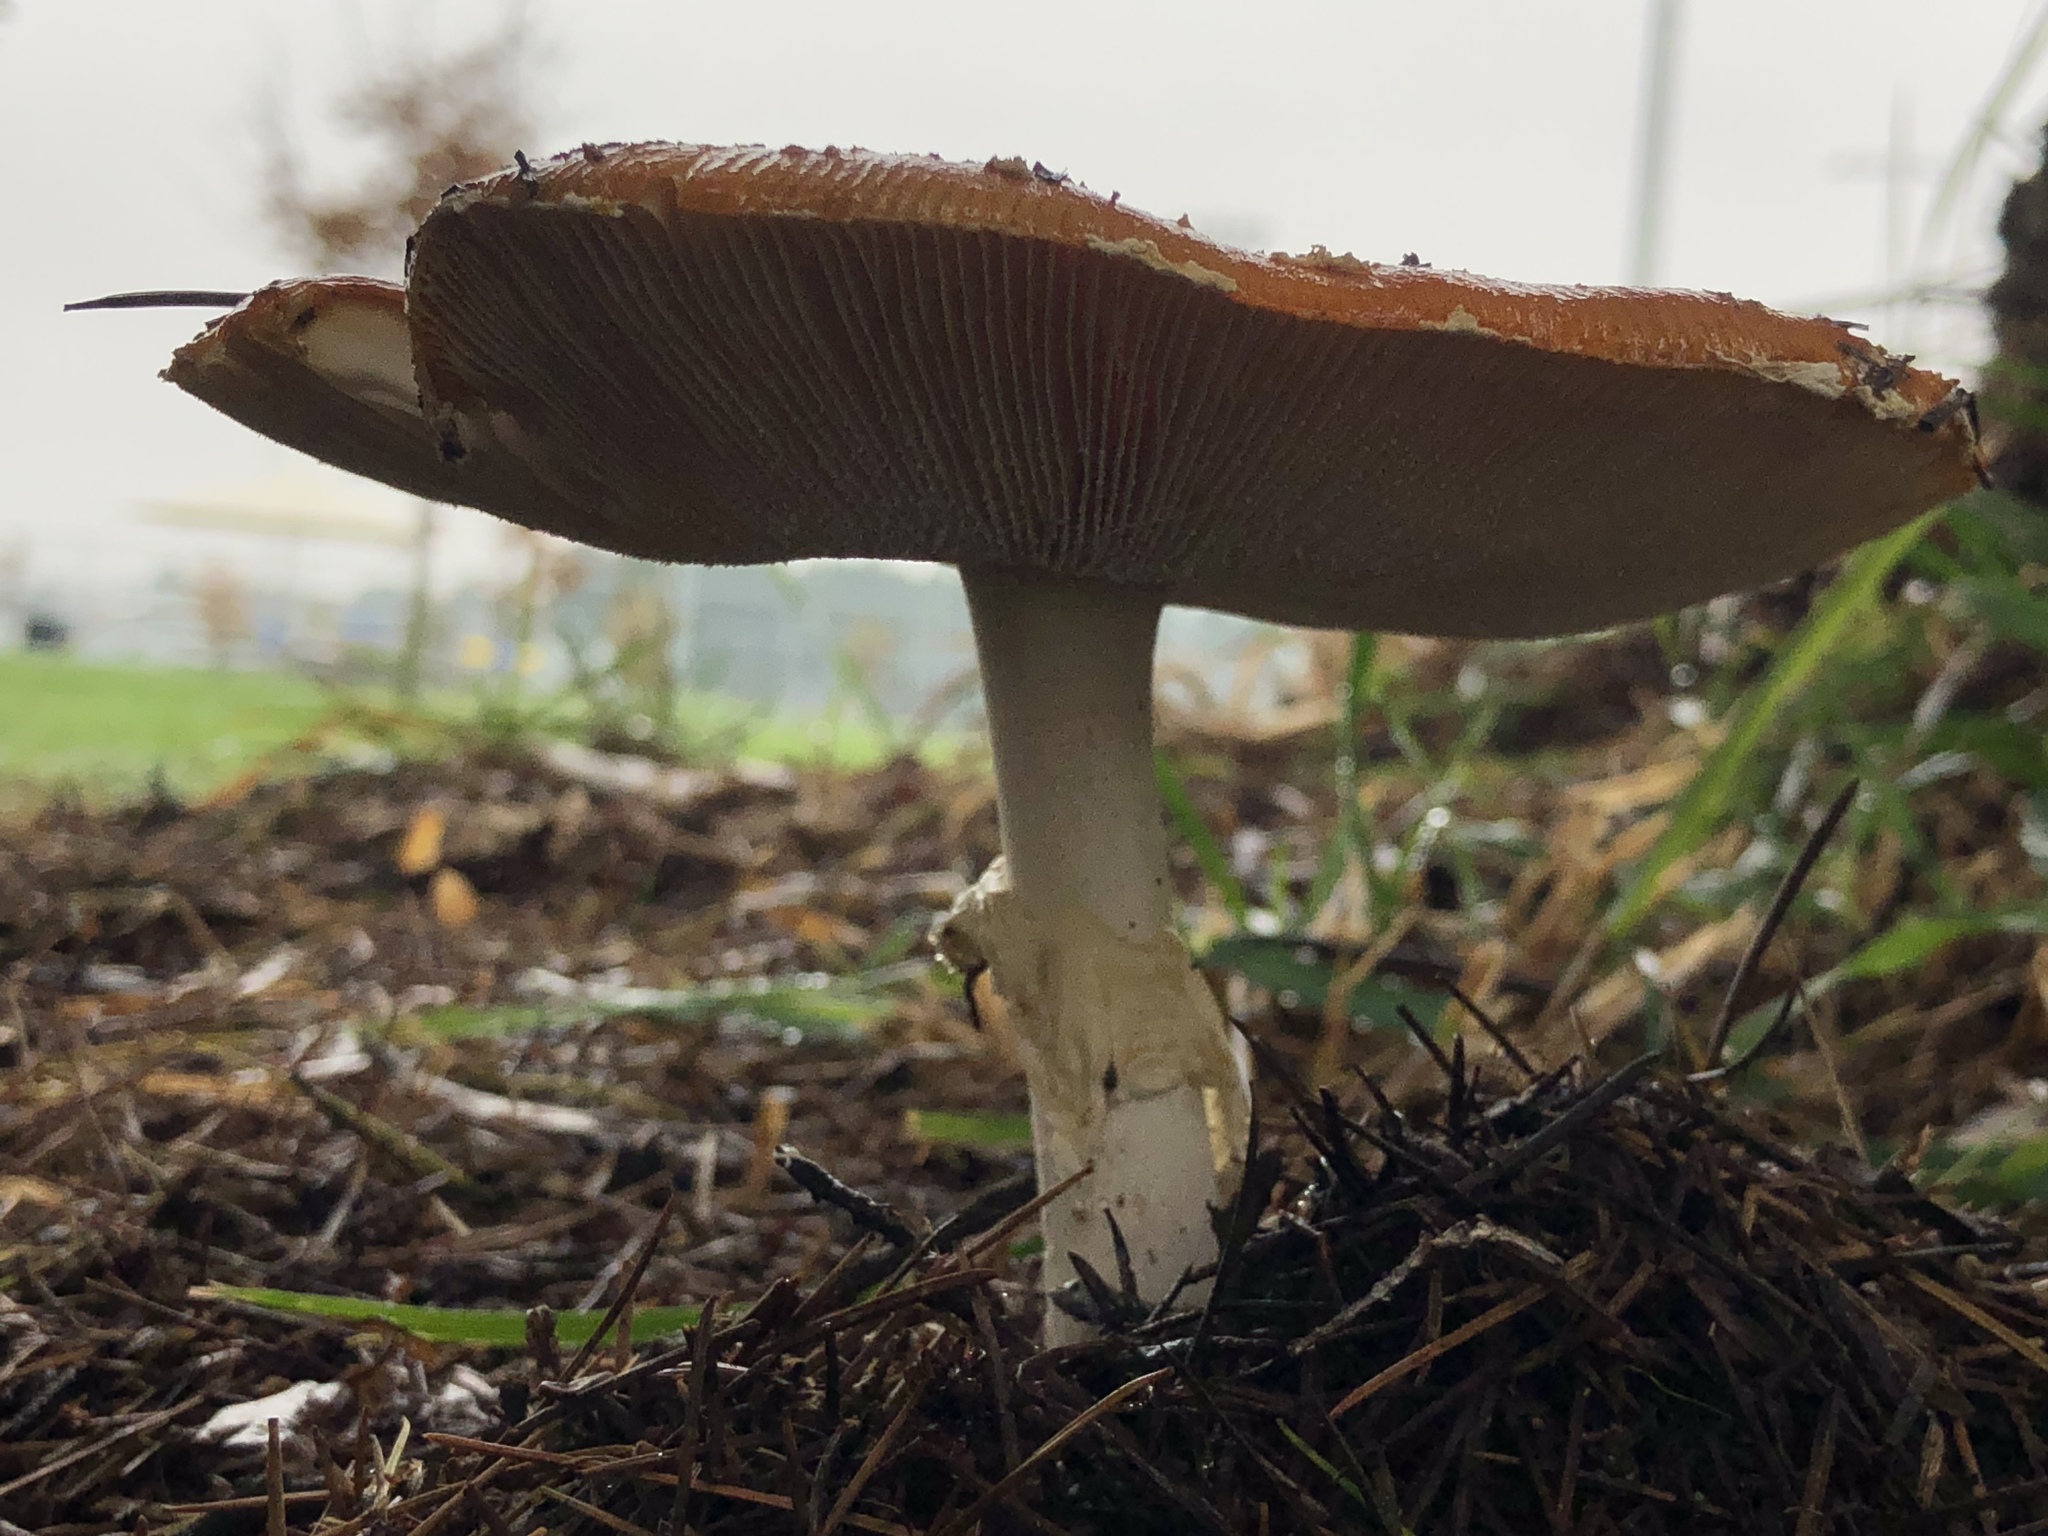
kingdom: Fungi
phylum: Basidiomycota
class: Agaricomycetes
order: Agaricales
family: Amanitaceae
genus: Amanita
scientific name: Amanita muscaria
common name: Fly agaric
